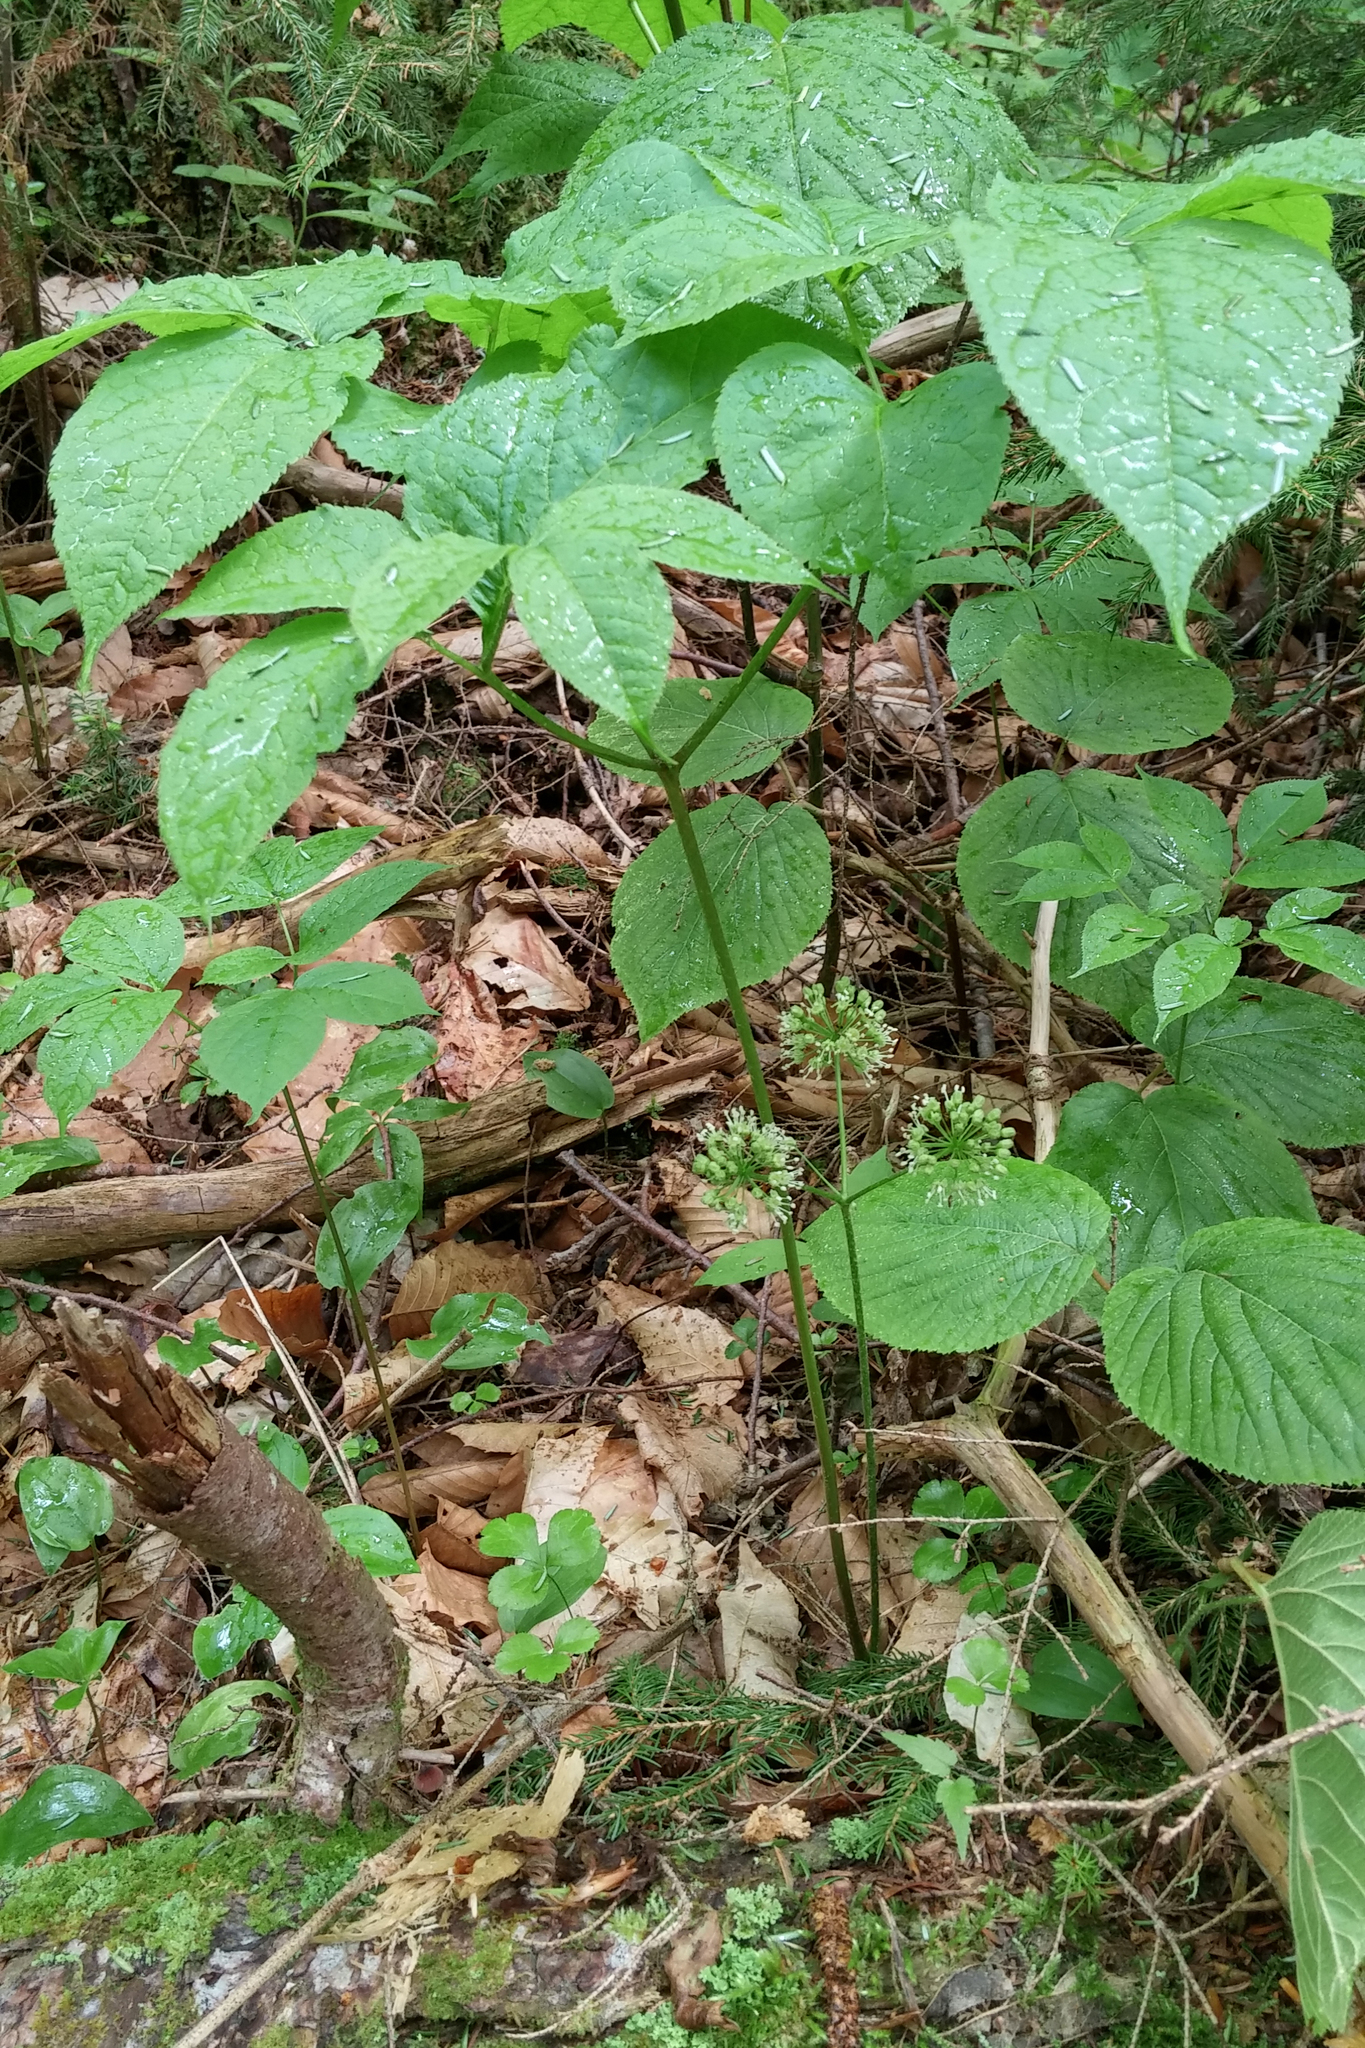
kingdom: Plantae
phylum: Tracheophyta
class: Magnoliopsida
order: Apiales
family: Araliaceae
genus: Aralia
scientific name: Aralia nudicaulis
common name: Wild sarsaparilla
